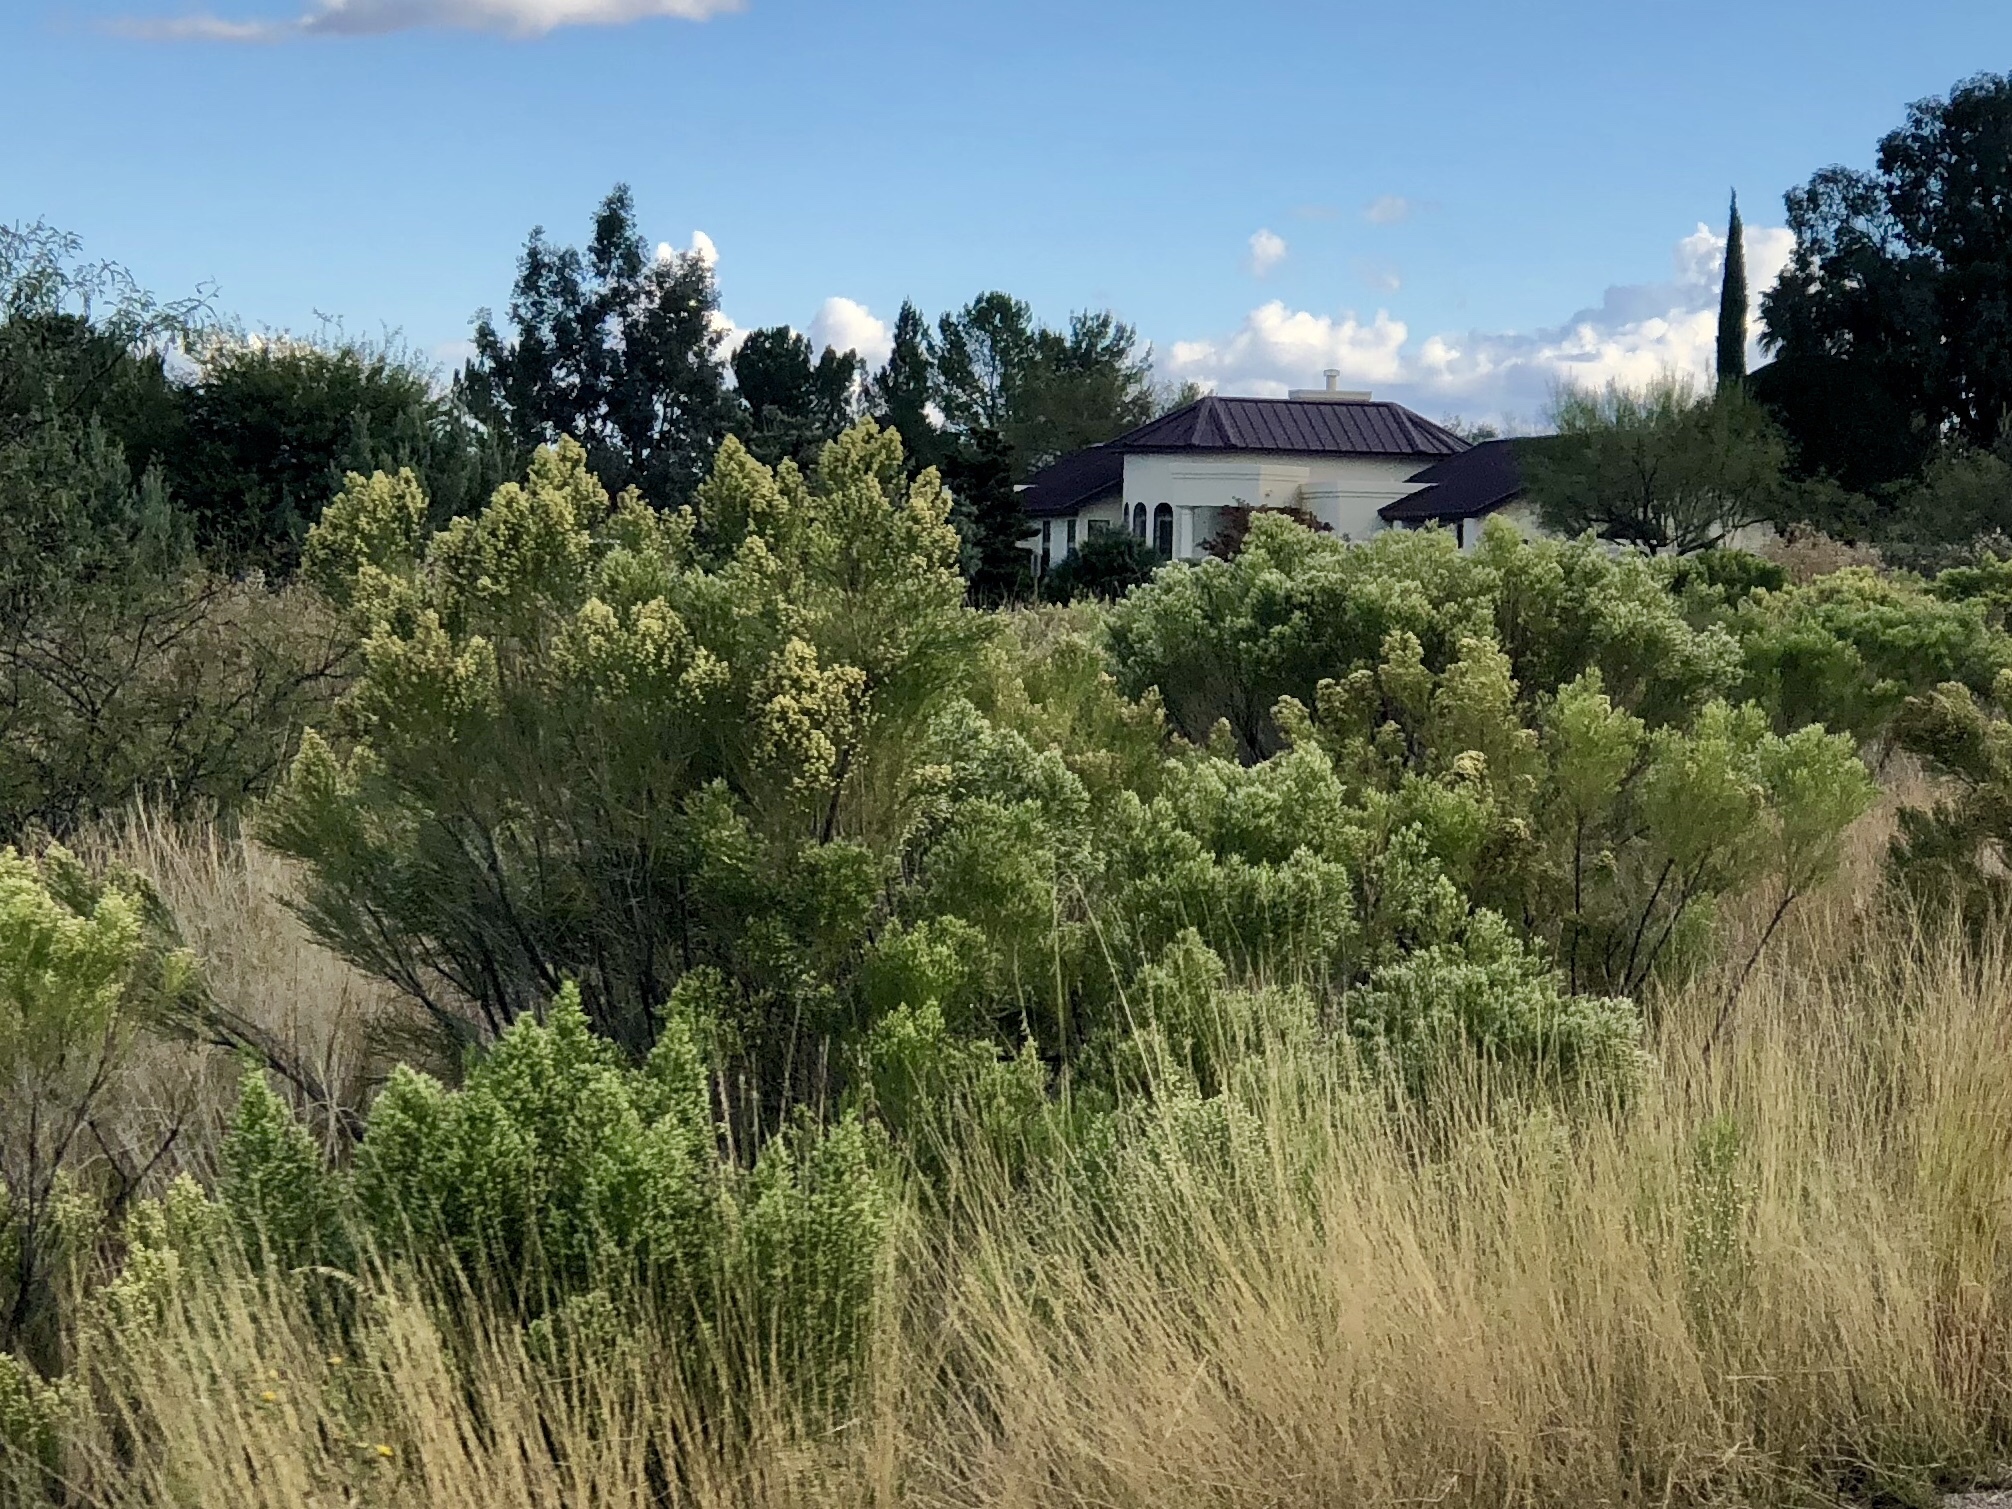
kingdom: Plantae
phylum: Tracheophyta
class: Magnoliopsida
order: Asterales
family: Asteraceae
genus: Baccharis
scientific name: Baccharis sarothroides
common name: Desert-broom
